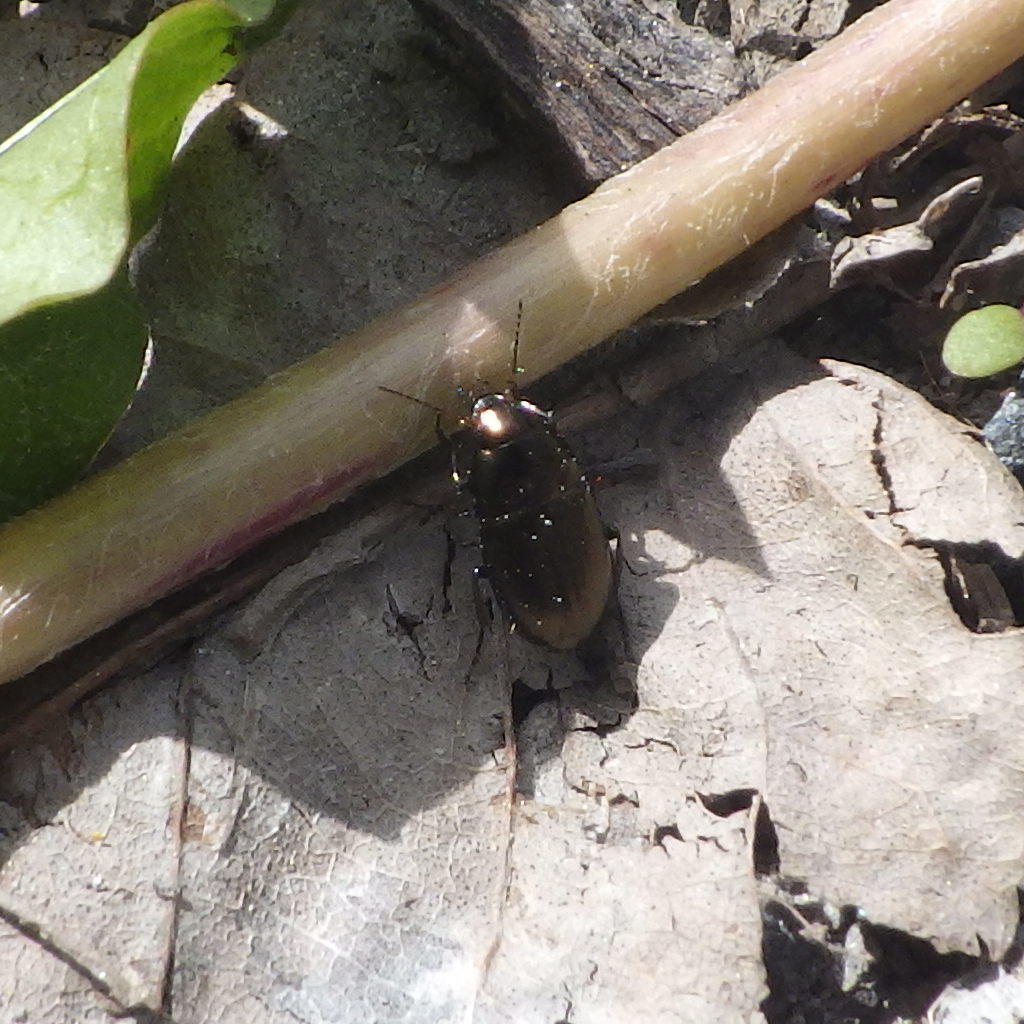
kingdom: Animalia
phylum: Arthropoda
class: Insecta
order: Coleoptera
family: Carabidae
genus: Amara
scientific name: Amara
